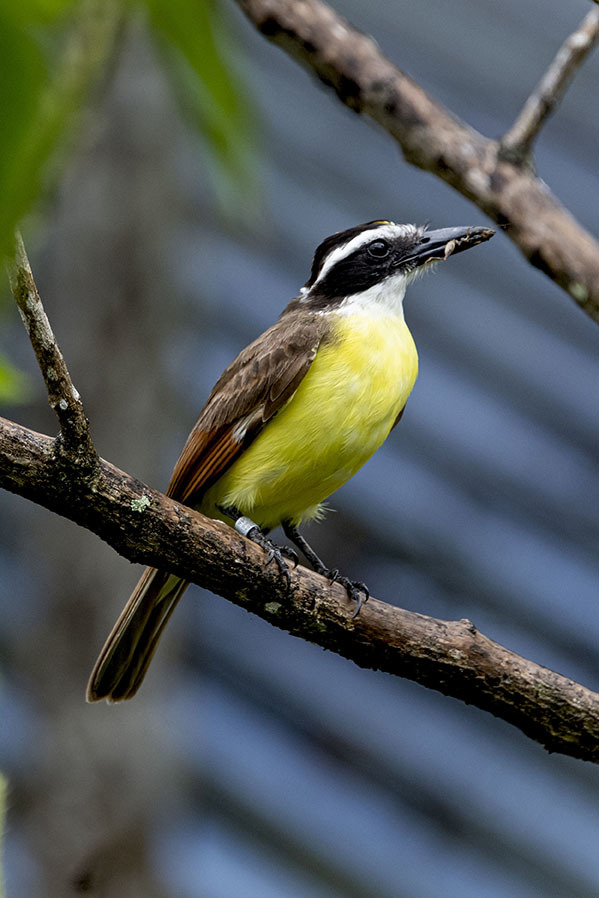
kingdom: Animalia
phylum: Chordata
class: Aves
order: Passeriformes
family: Tyrannidae
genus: Pitangus
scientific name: Pitangus sulphuratus
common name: Great kiskadee
